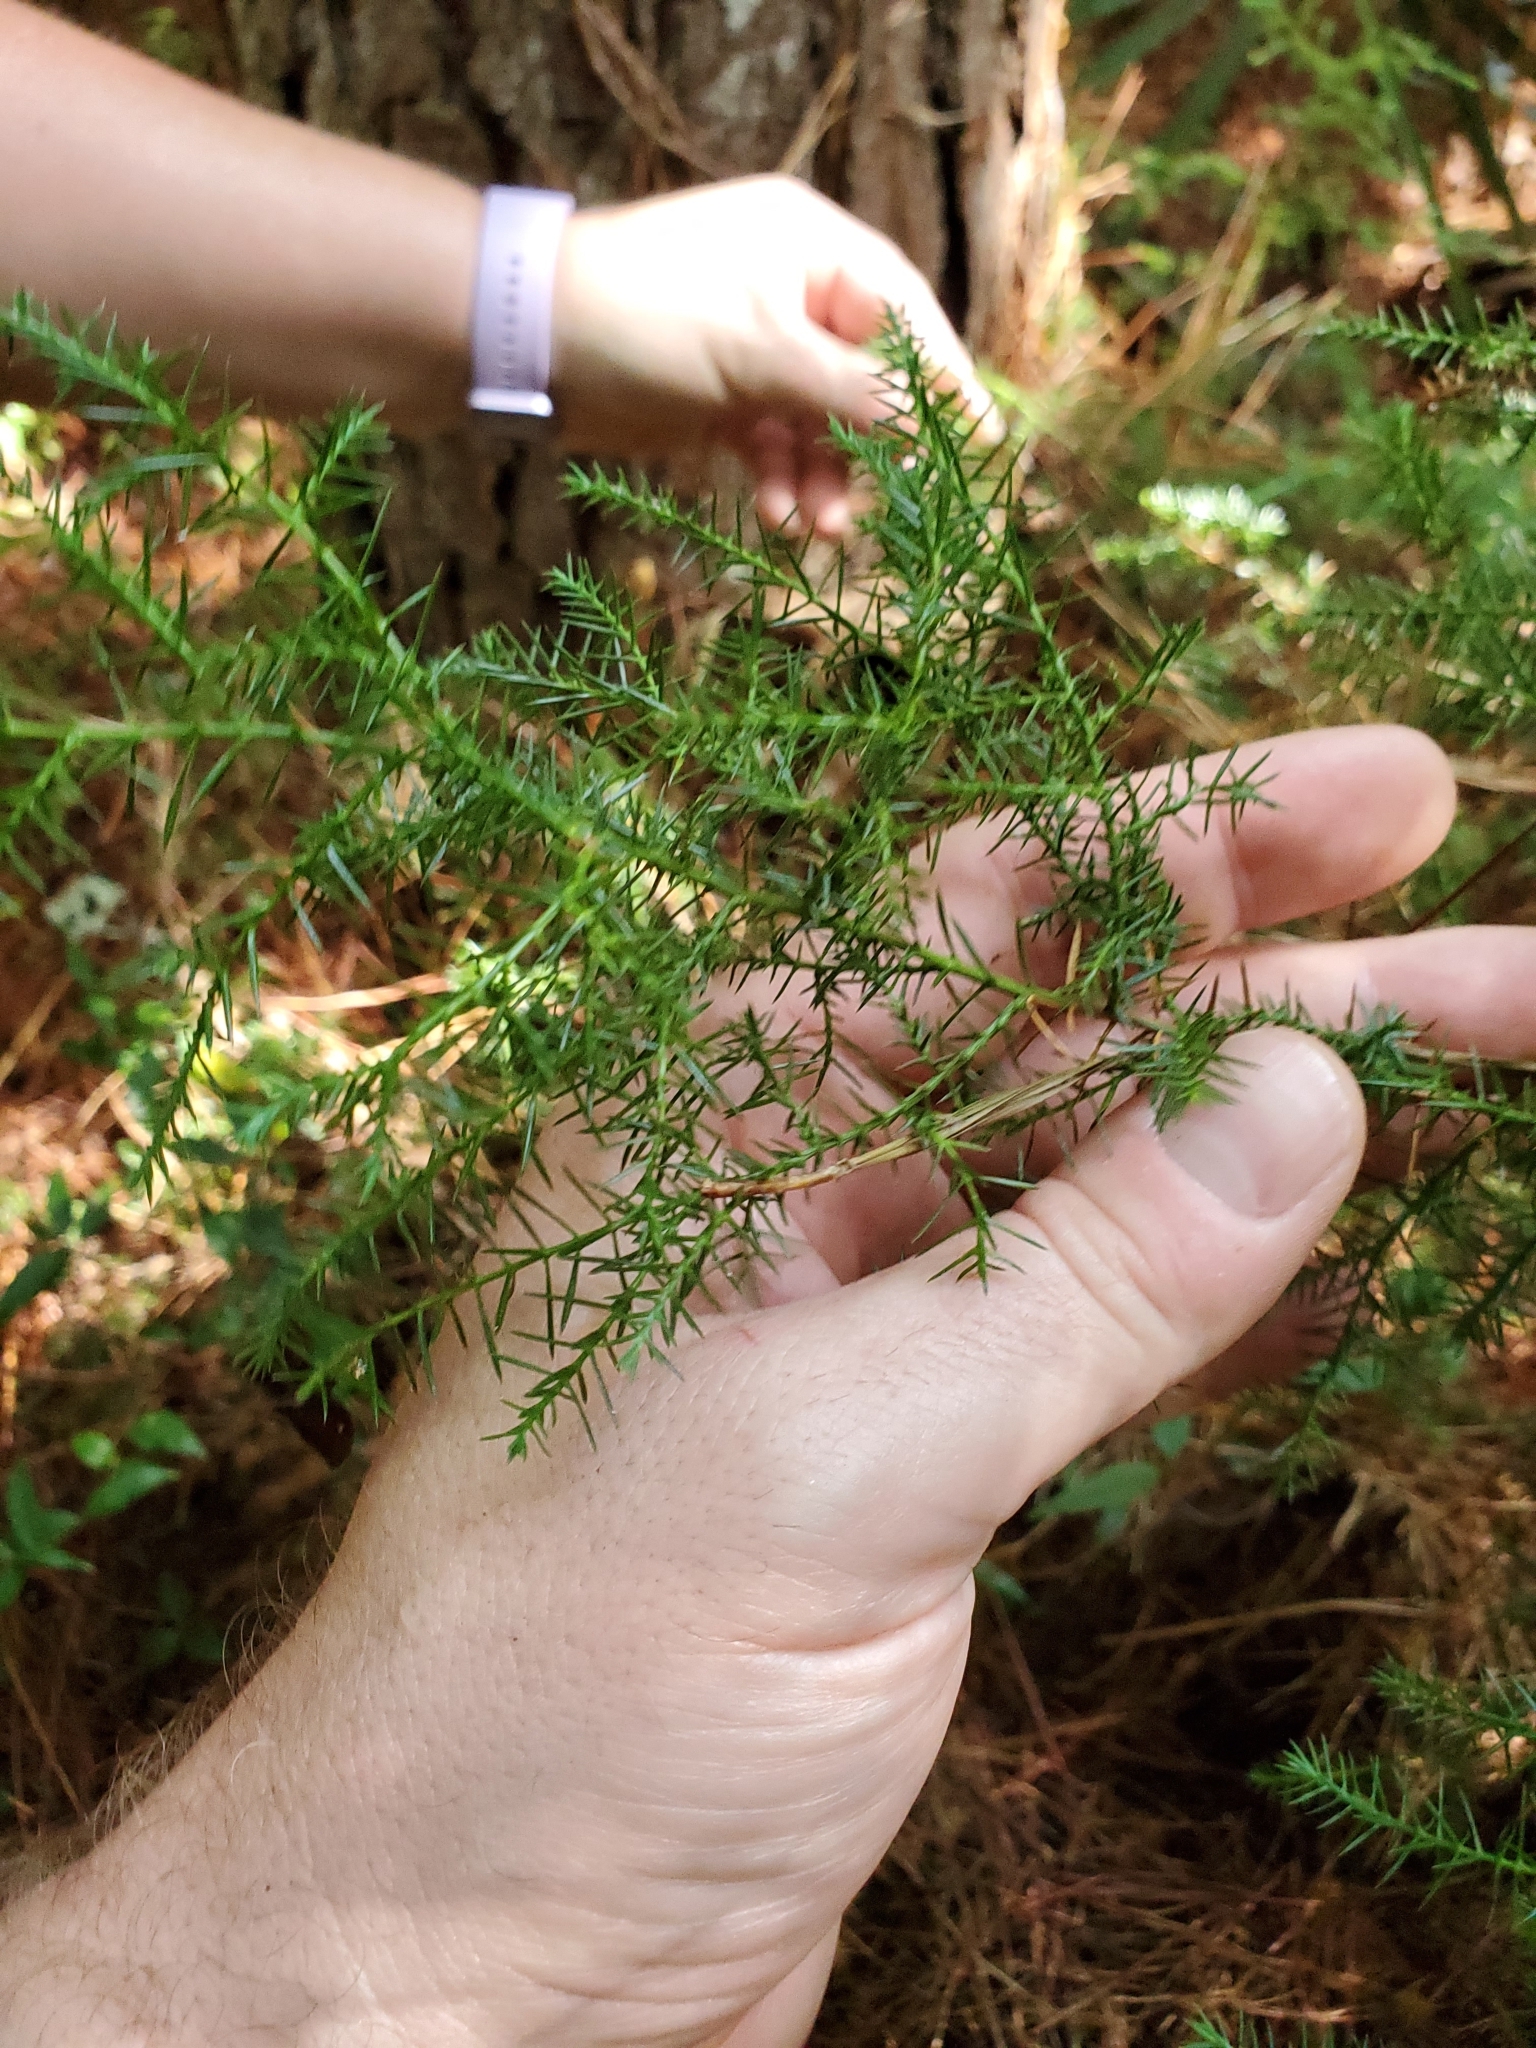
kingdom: Plantae
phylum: Tracheophyta
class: Pinopsida
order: Pinales
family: Cupressaceae
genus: Juniperus
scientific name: Juniperus virginiana
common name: Red juniper
